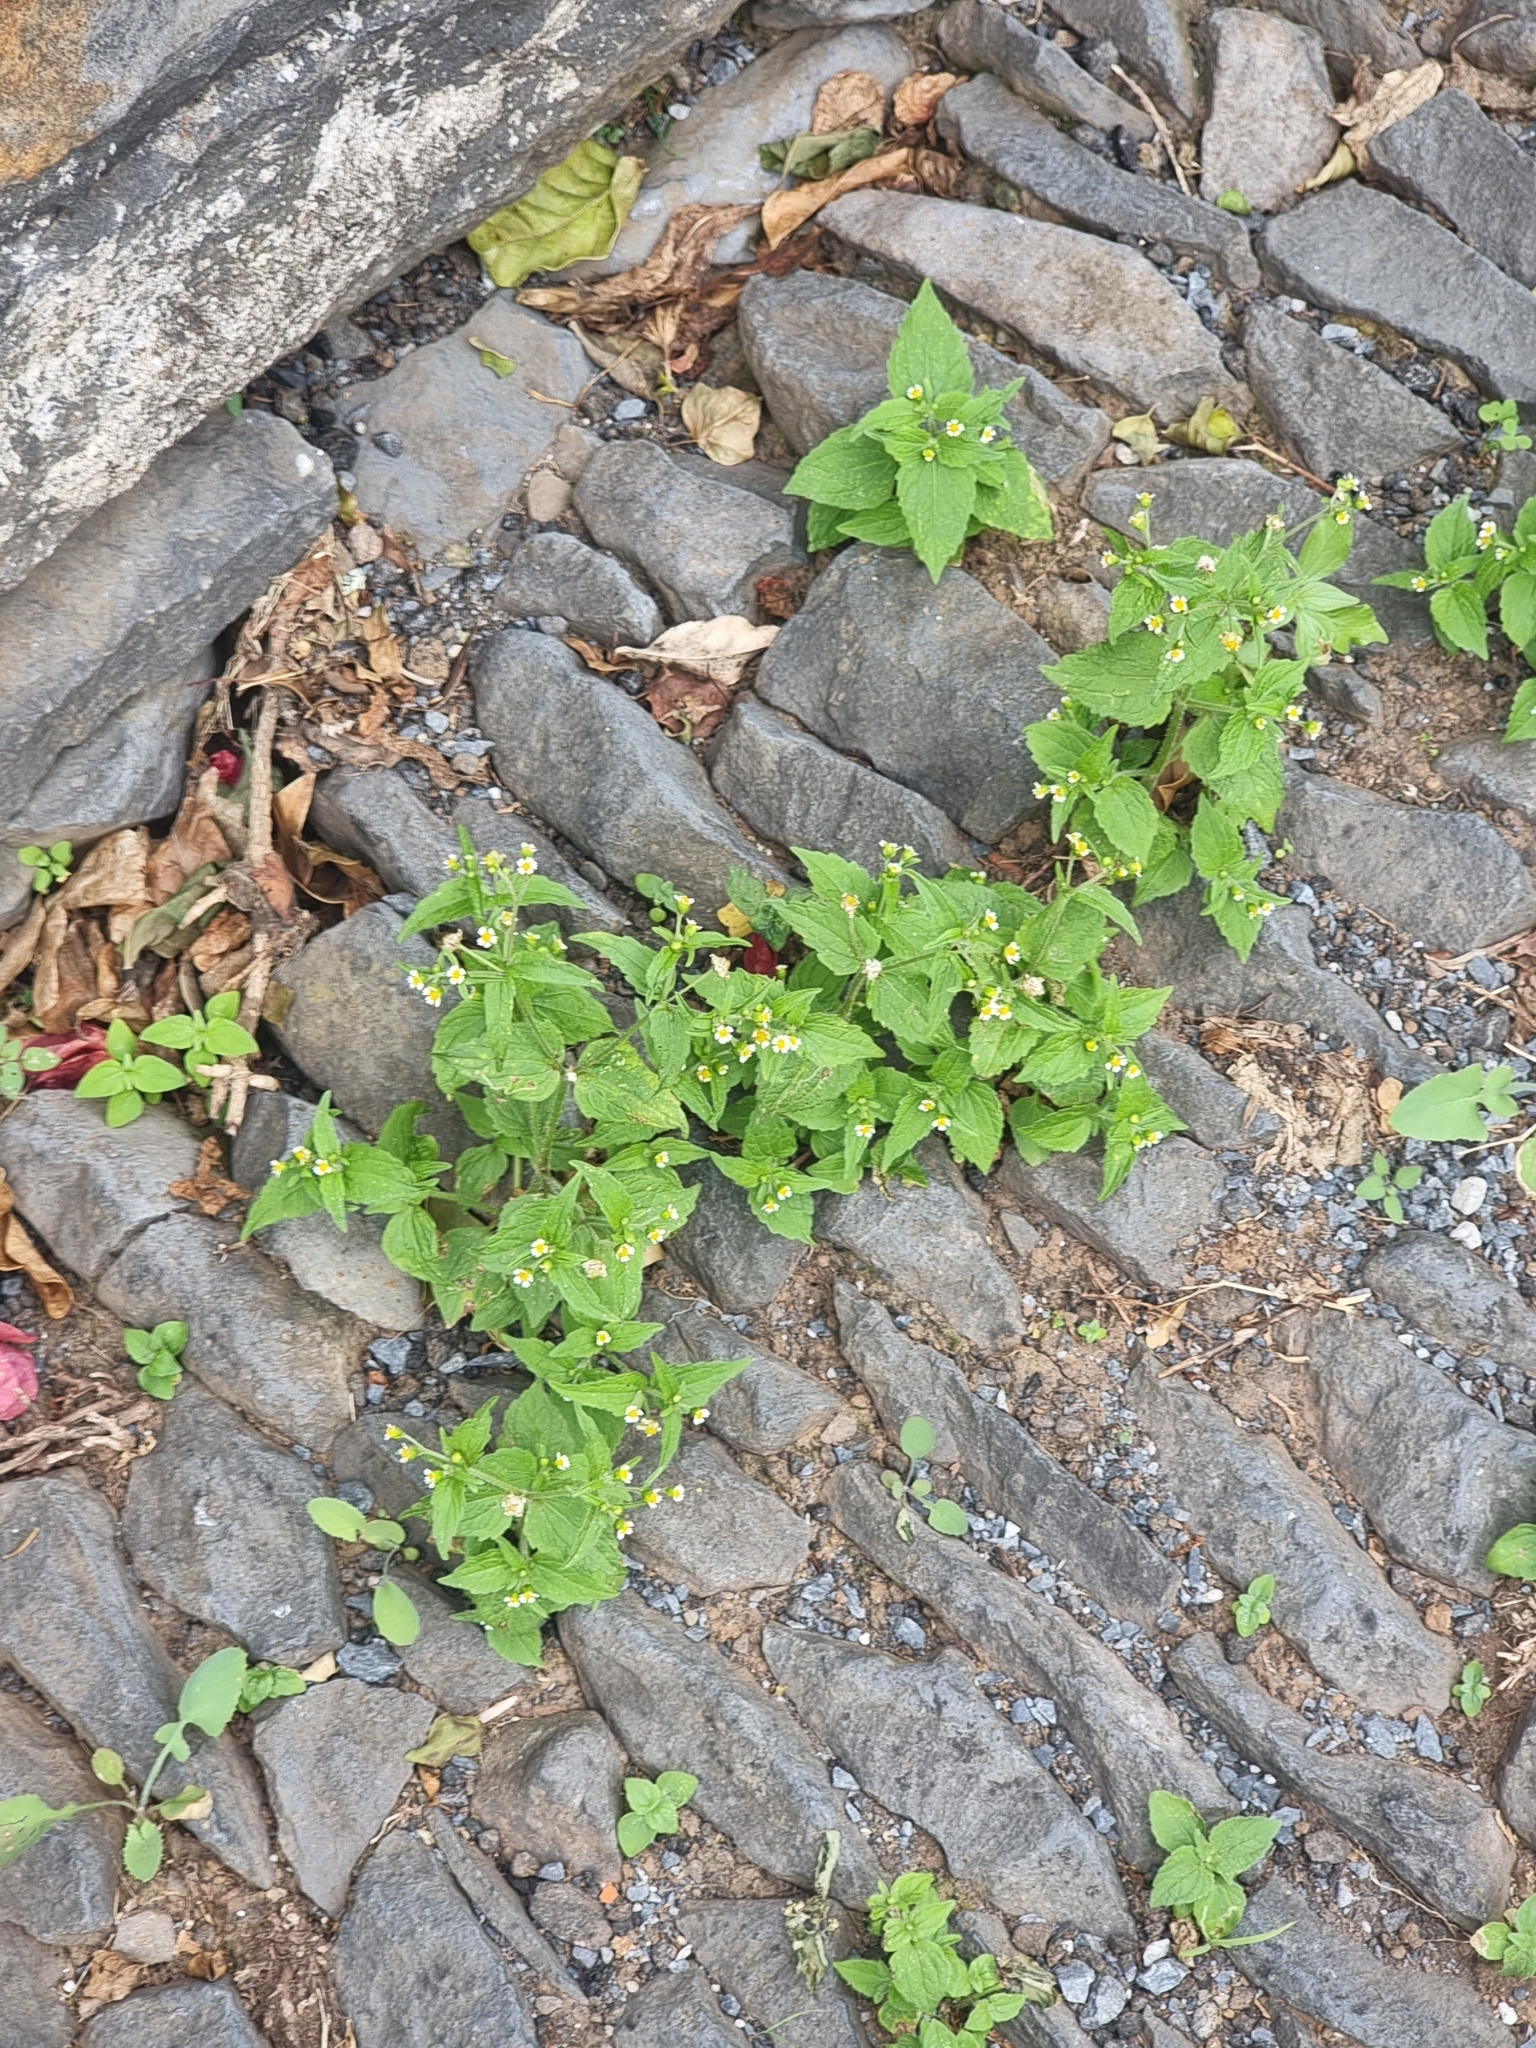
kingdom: Plantae
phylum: Tracheophyta
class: Magnoliopsida
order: Asterales
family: Asteraceae
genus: Galinsoga
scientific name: Galinsoga quadriradiata
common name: Shaggy soldier
